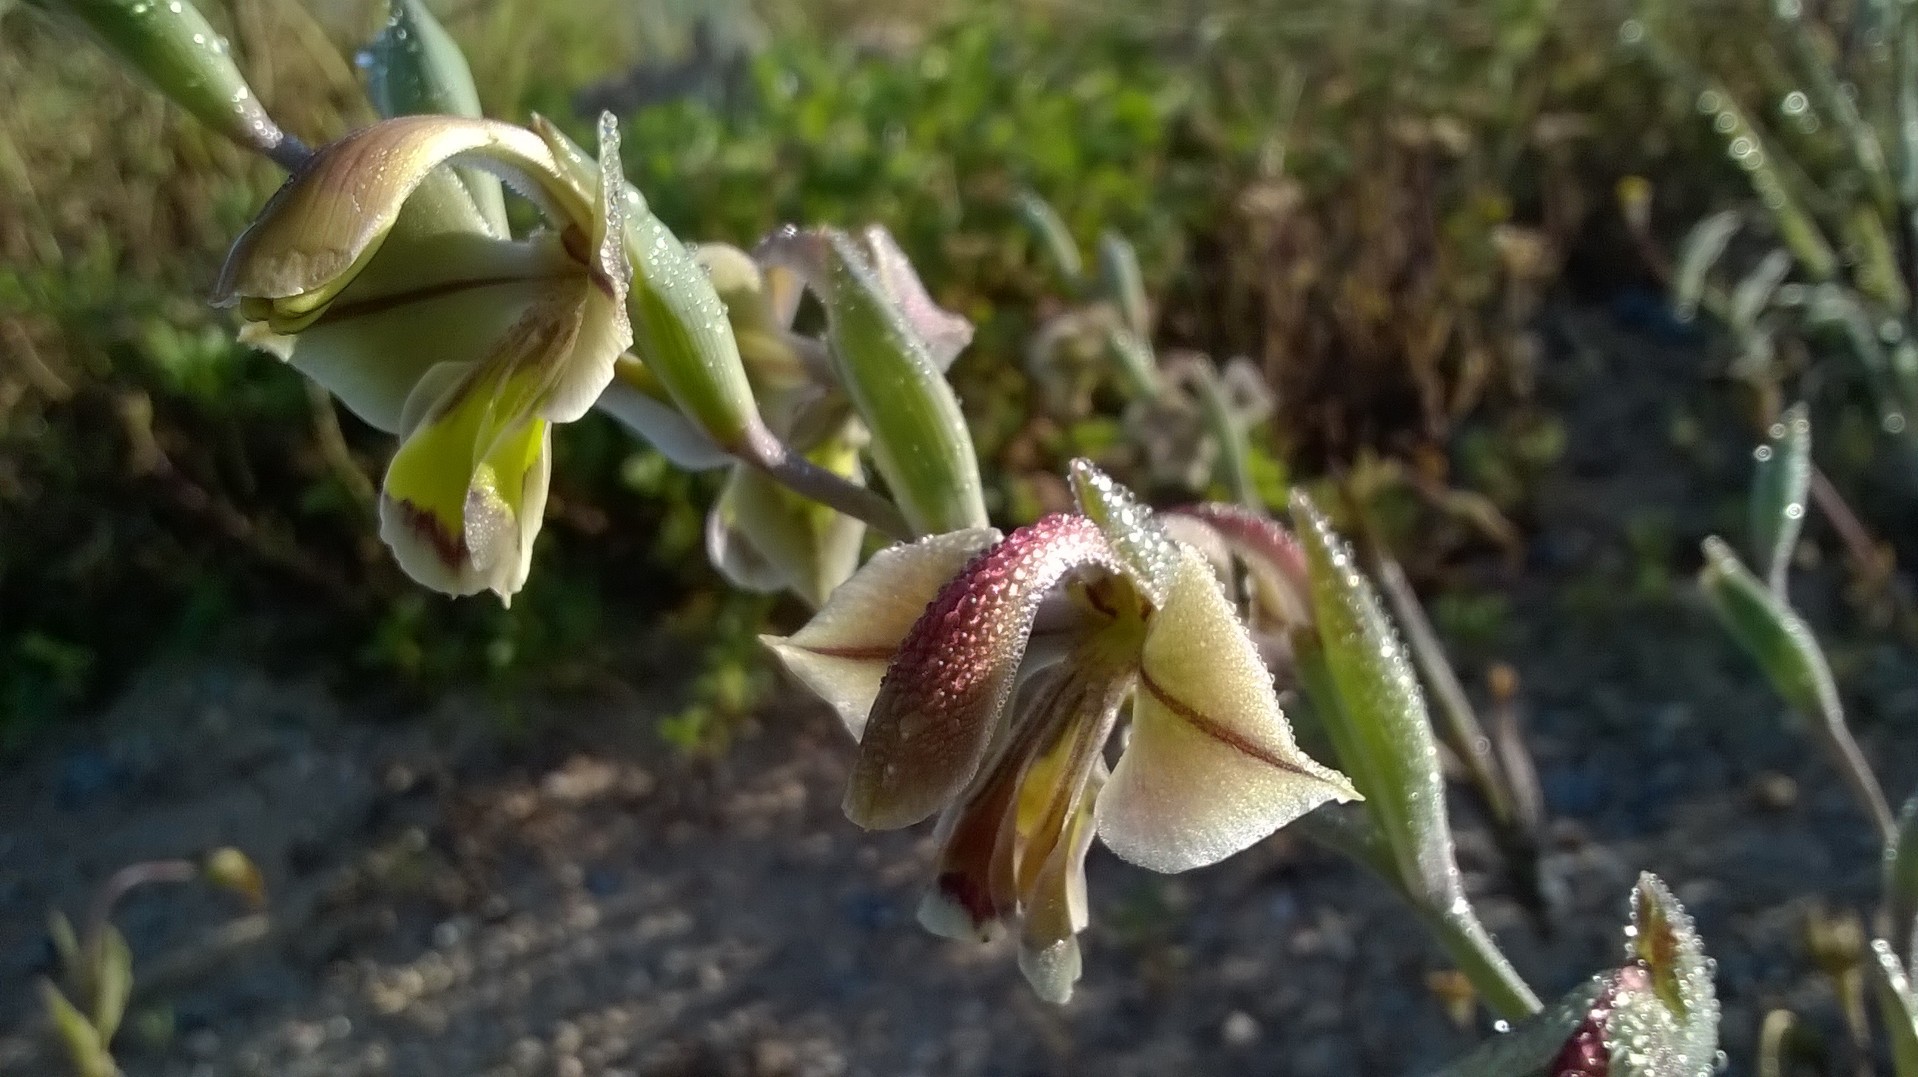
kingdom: Plantae
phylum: Tracheophyta
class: Liliopsida
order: Asparagales
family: Iridaceae
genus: Gladiolus
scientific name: Gladiolus orchidiflorus
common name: Gray kalkoentjie
